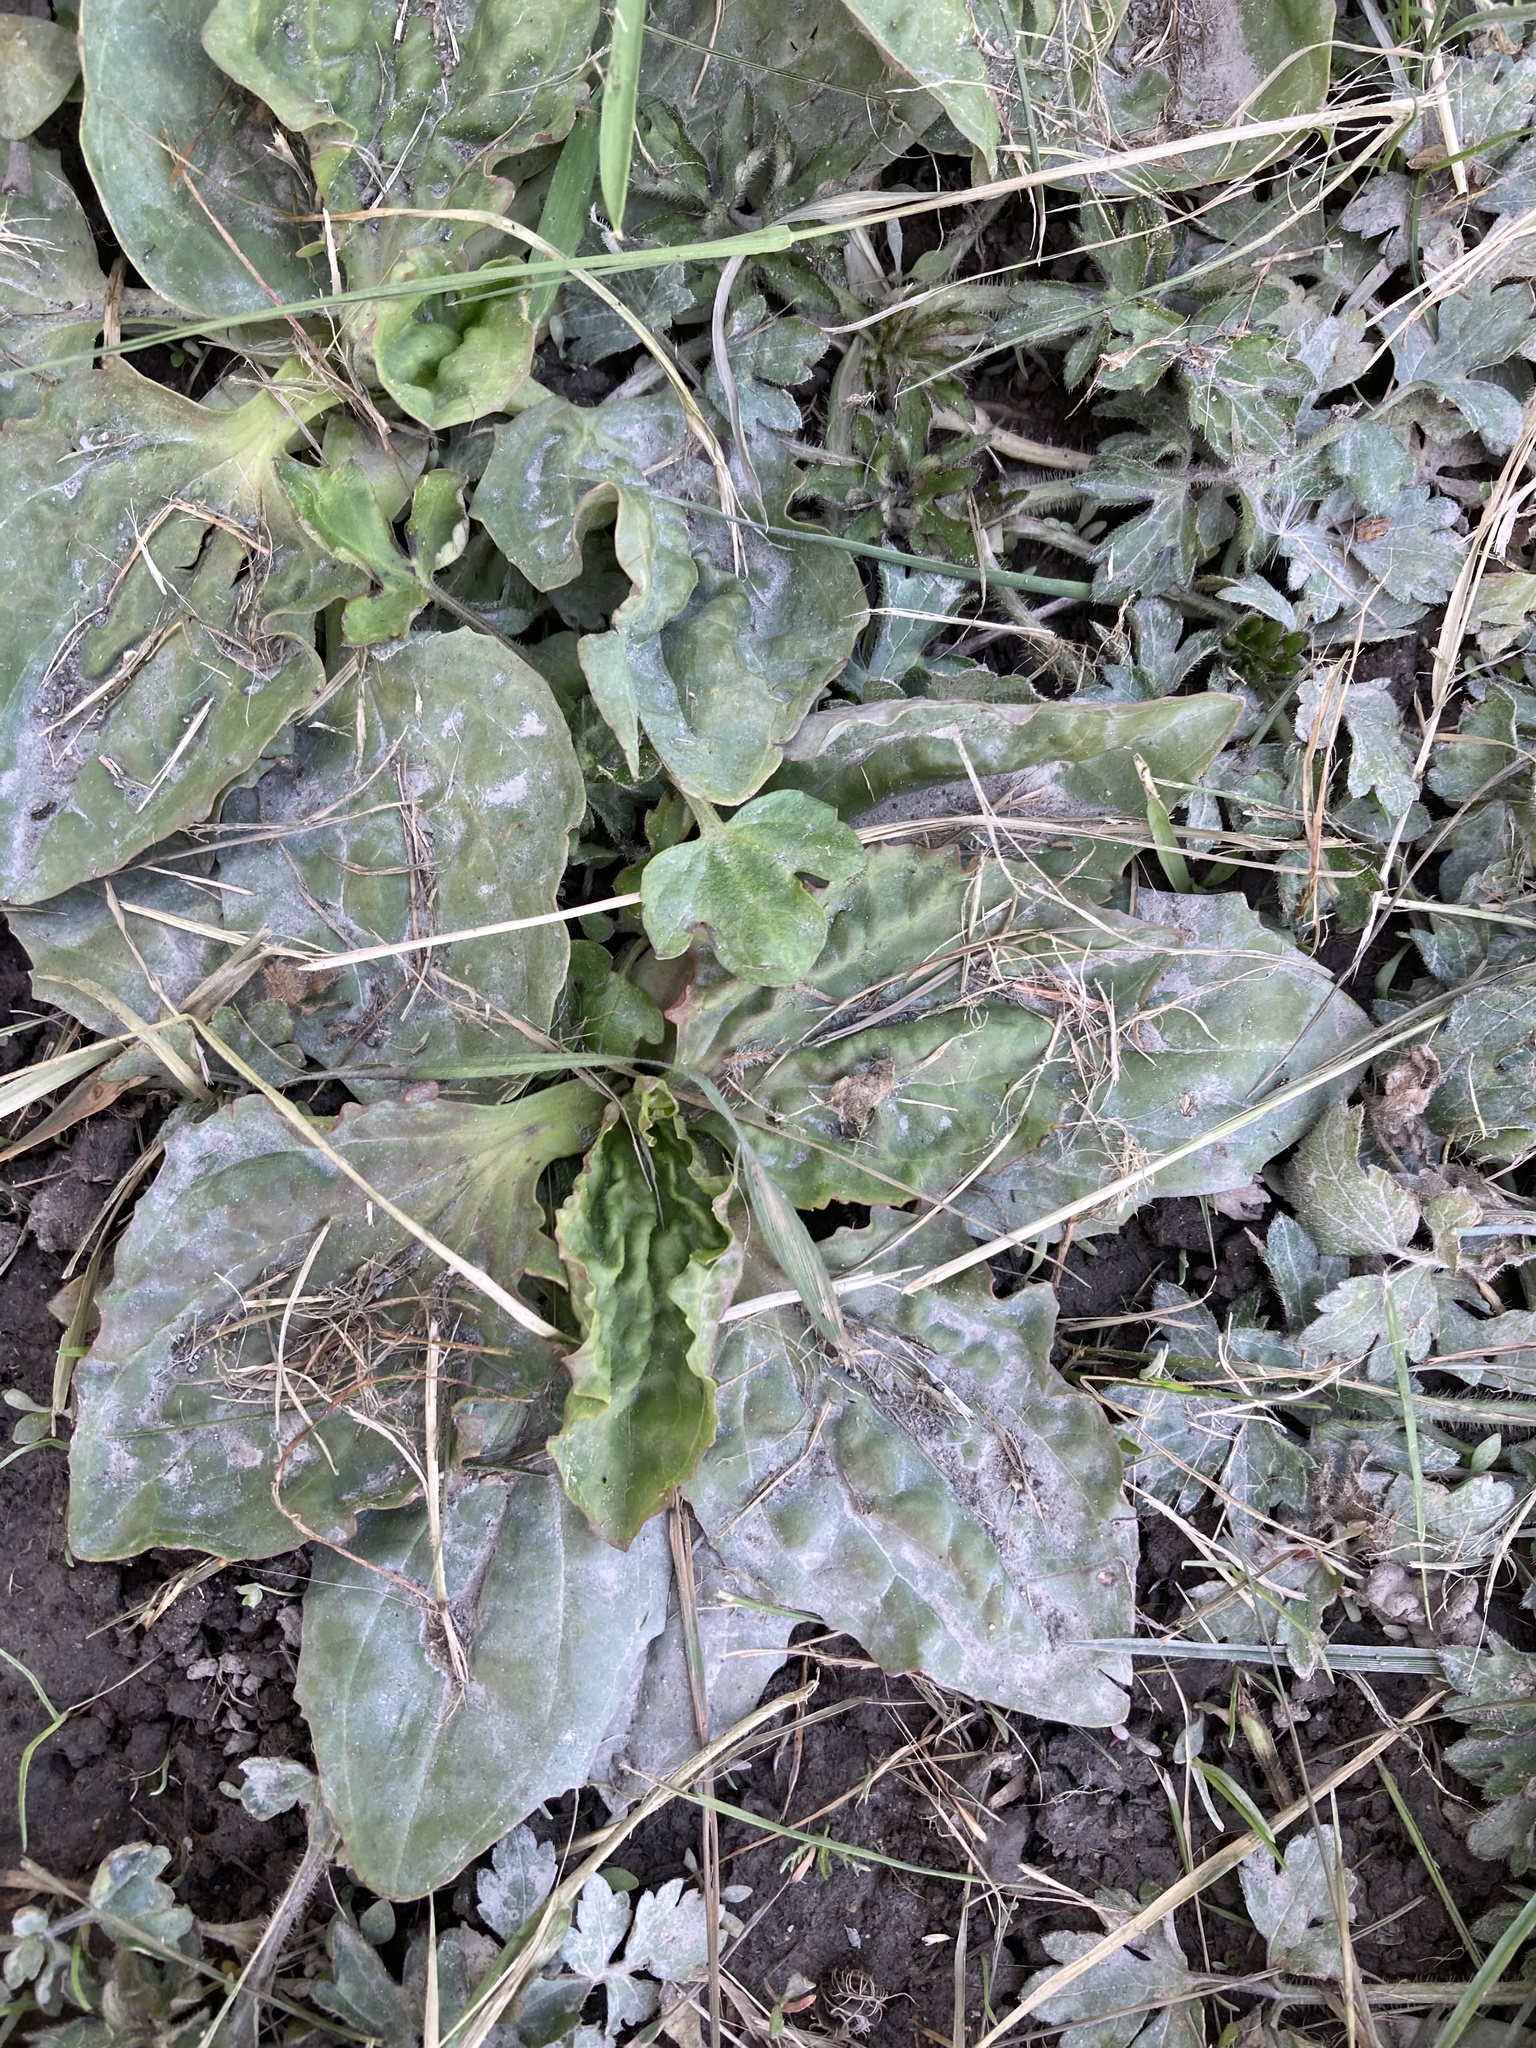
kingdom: Plantae
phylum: Tracheophyta
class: Magnoliopsida
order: Lamiales
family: Plantaginaceae
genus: Plantago
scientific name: Plantago major
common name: Common plantain
